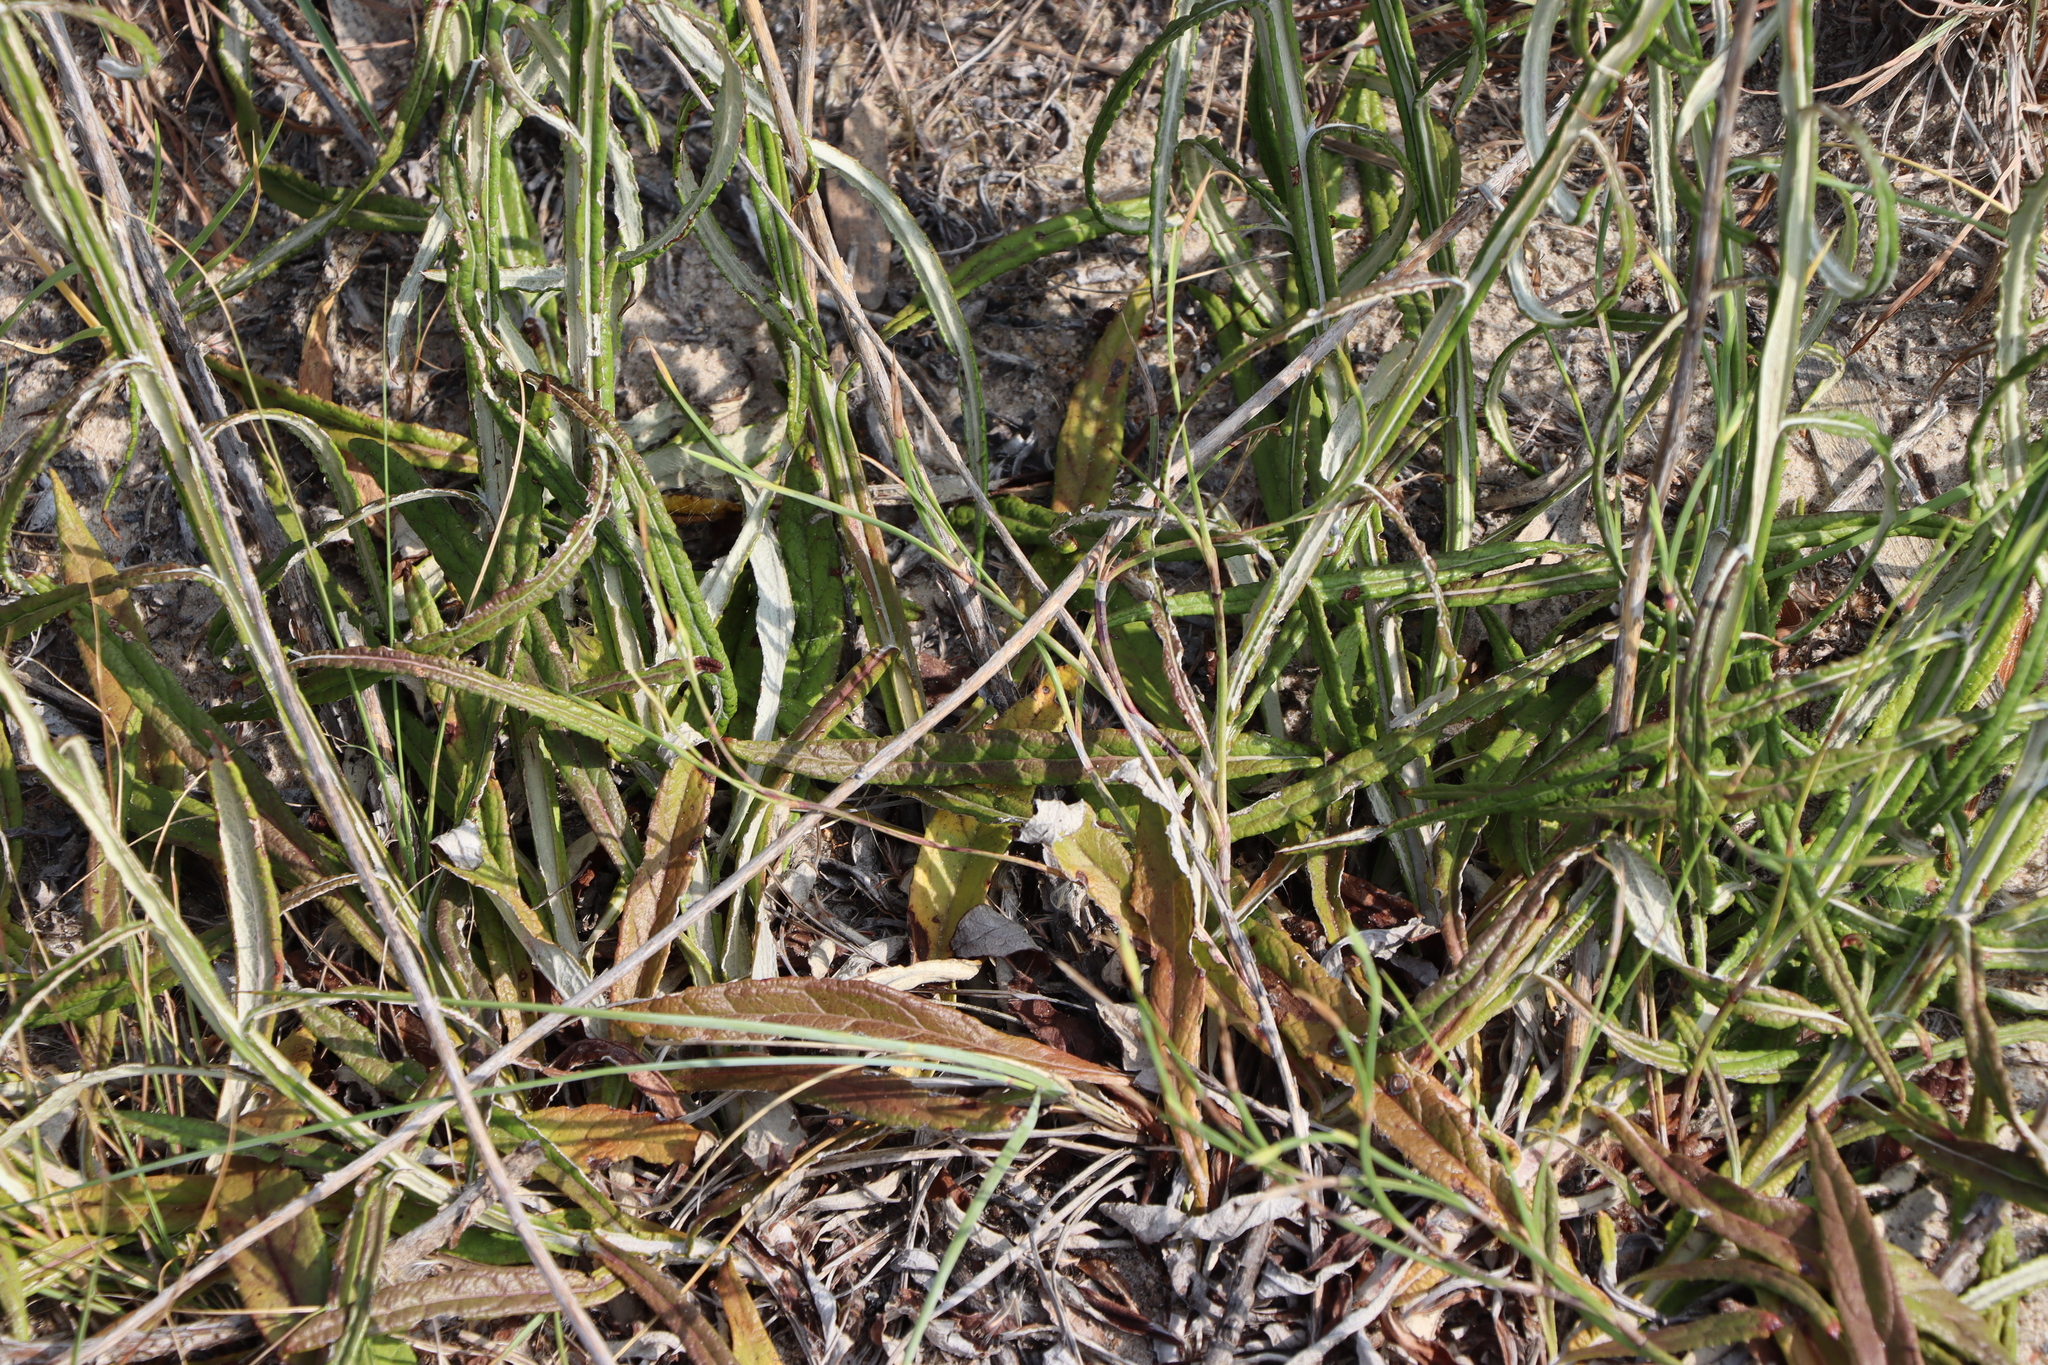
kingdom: Plantae
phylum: Tracheophyta
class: Magnoliopsida
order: Asterales
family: Asteraceae
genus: Pterocaulon
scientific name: Pterocaulon lorentzii
